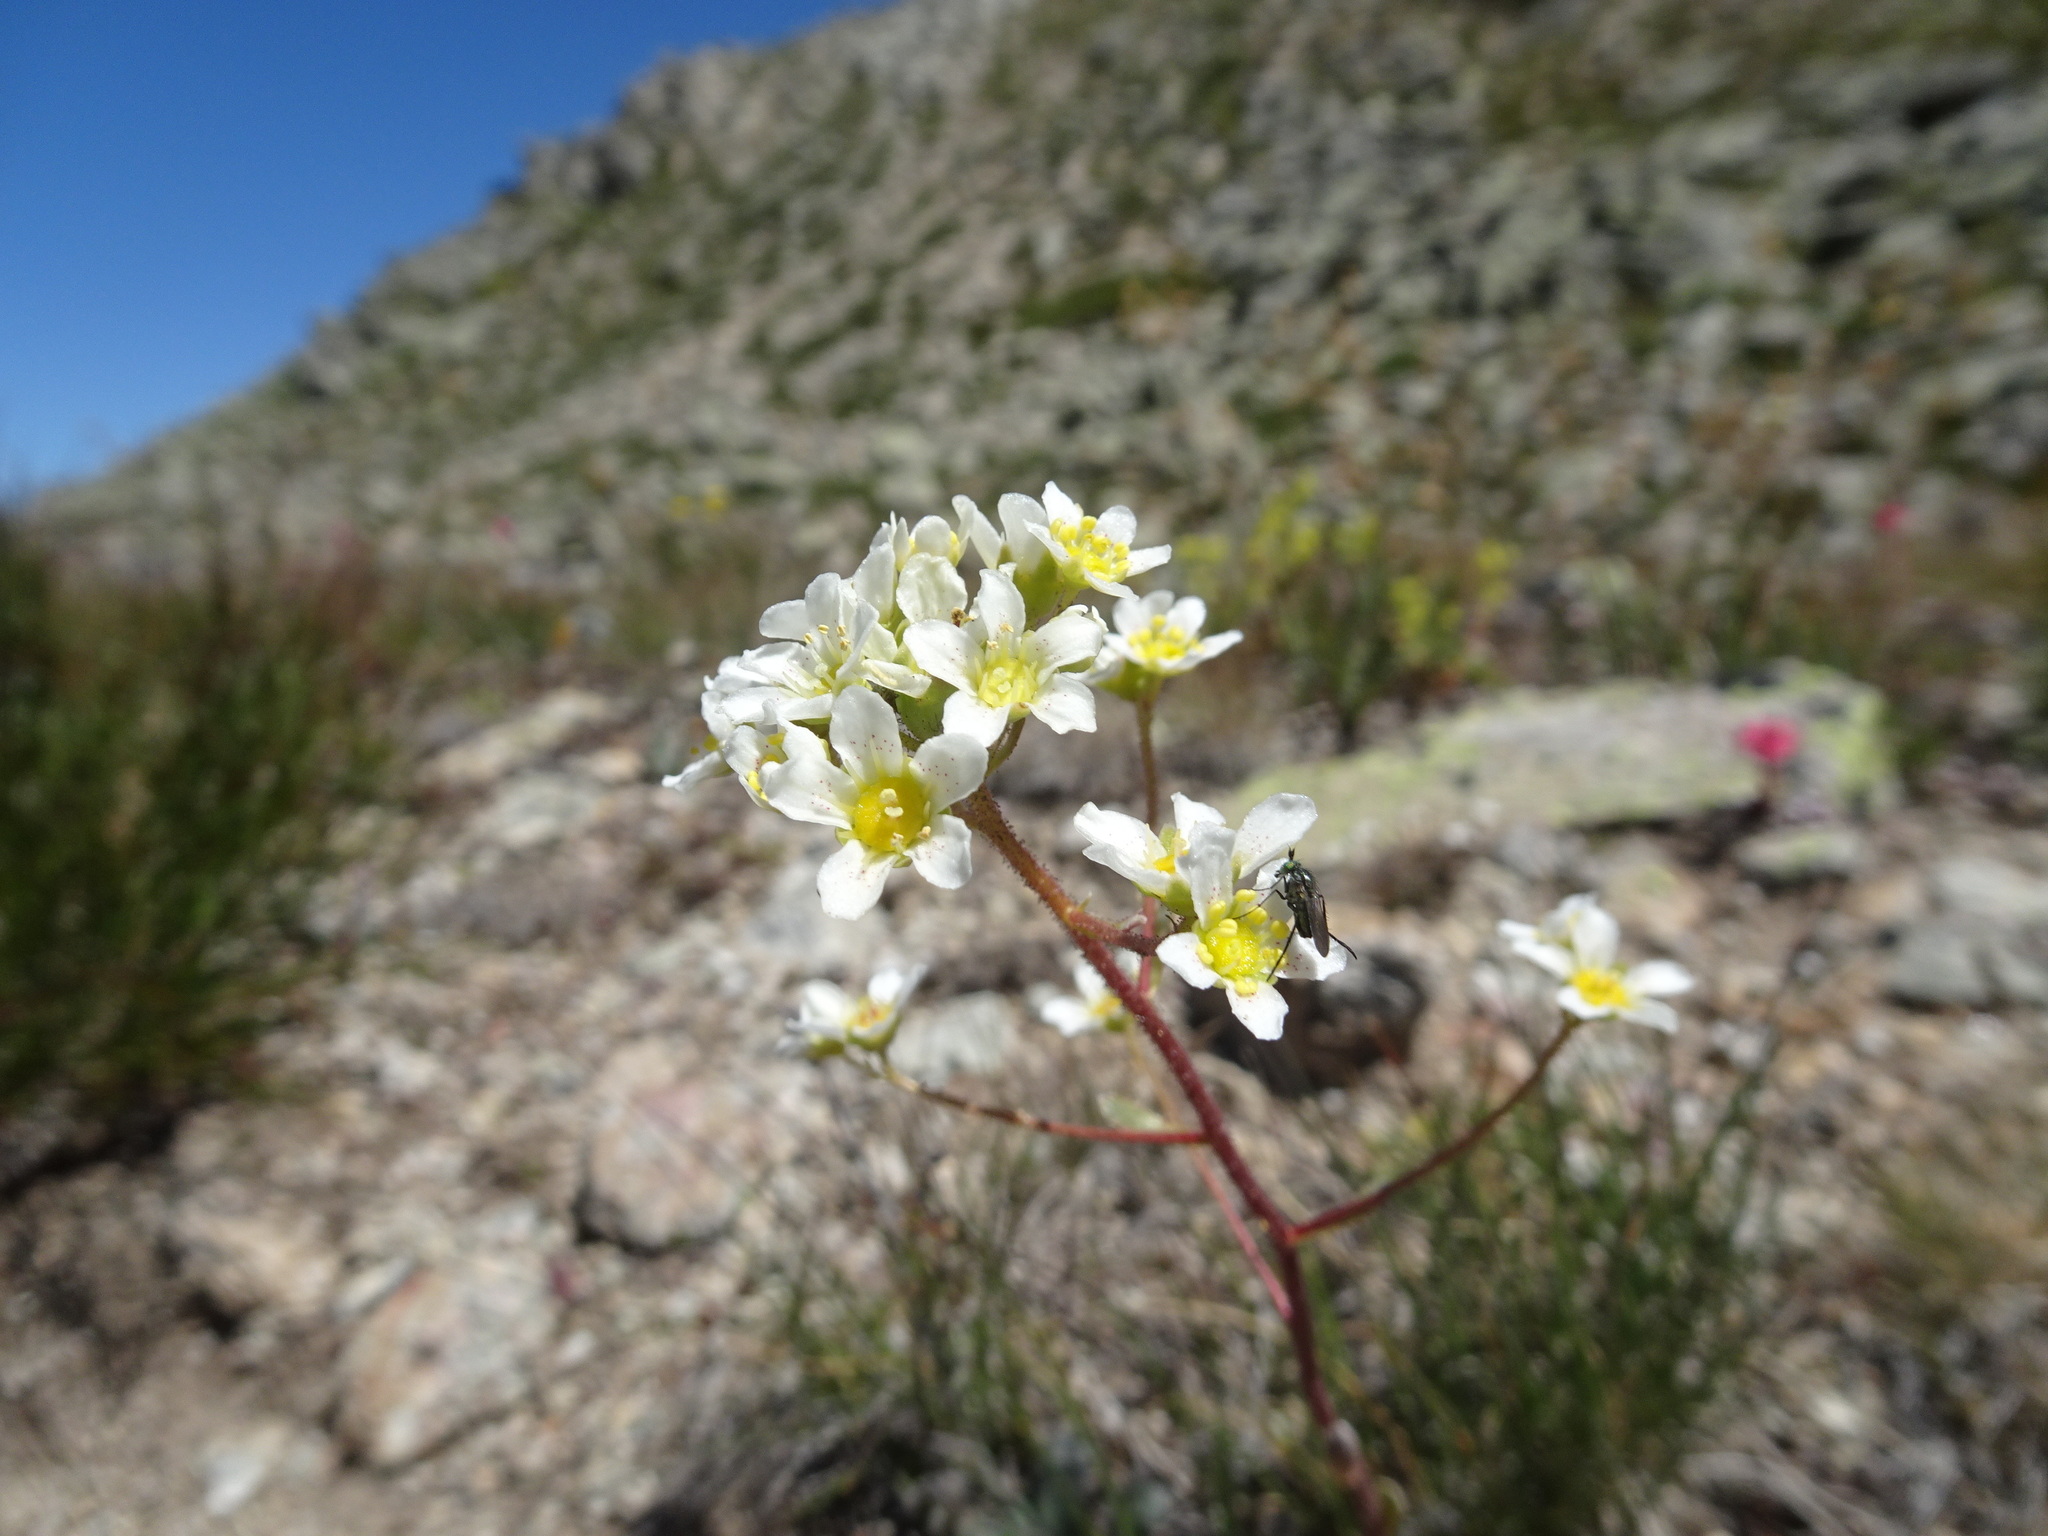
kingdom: Plantae
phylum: Tracheophyta
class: Magnoliopsida
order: Saxifragales
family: Saxifragaceae
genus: Saxifraga
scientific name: Saxifraga paniculata
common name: Livelong saxifrage
